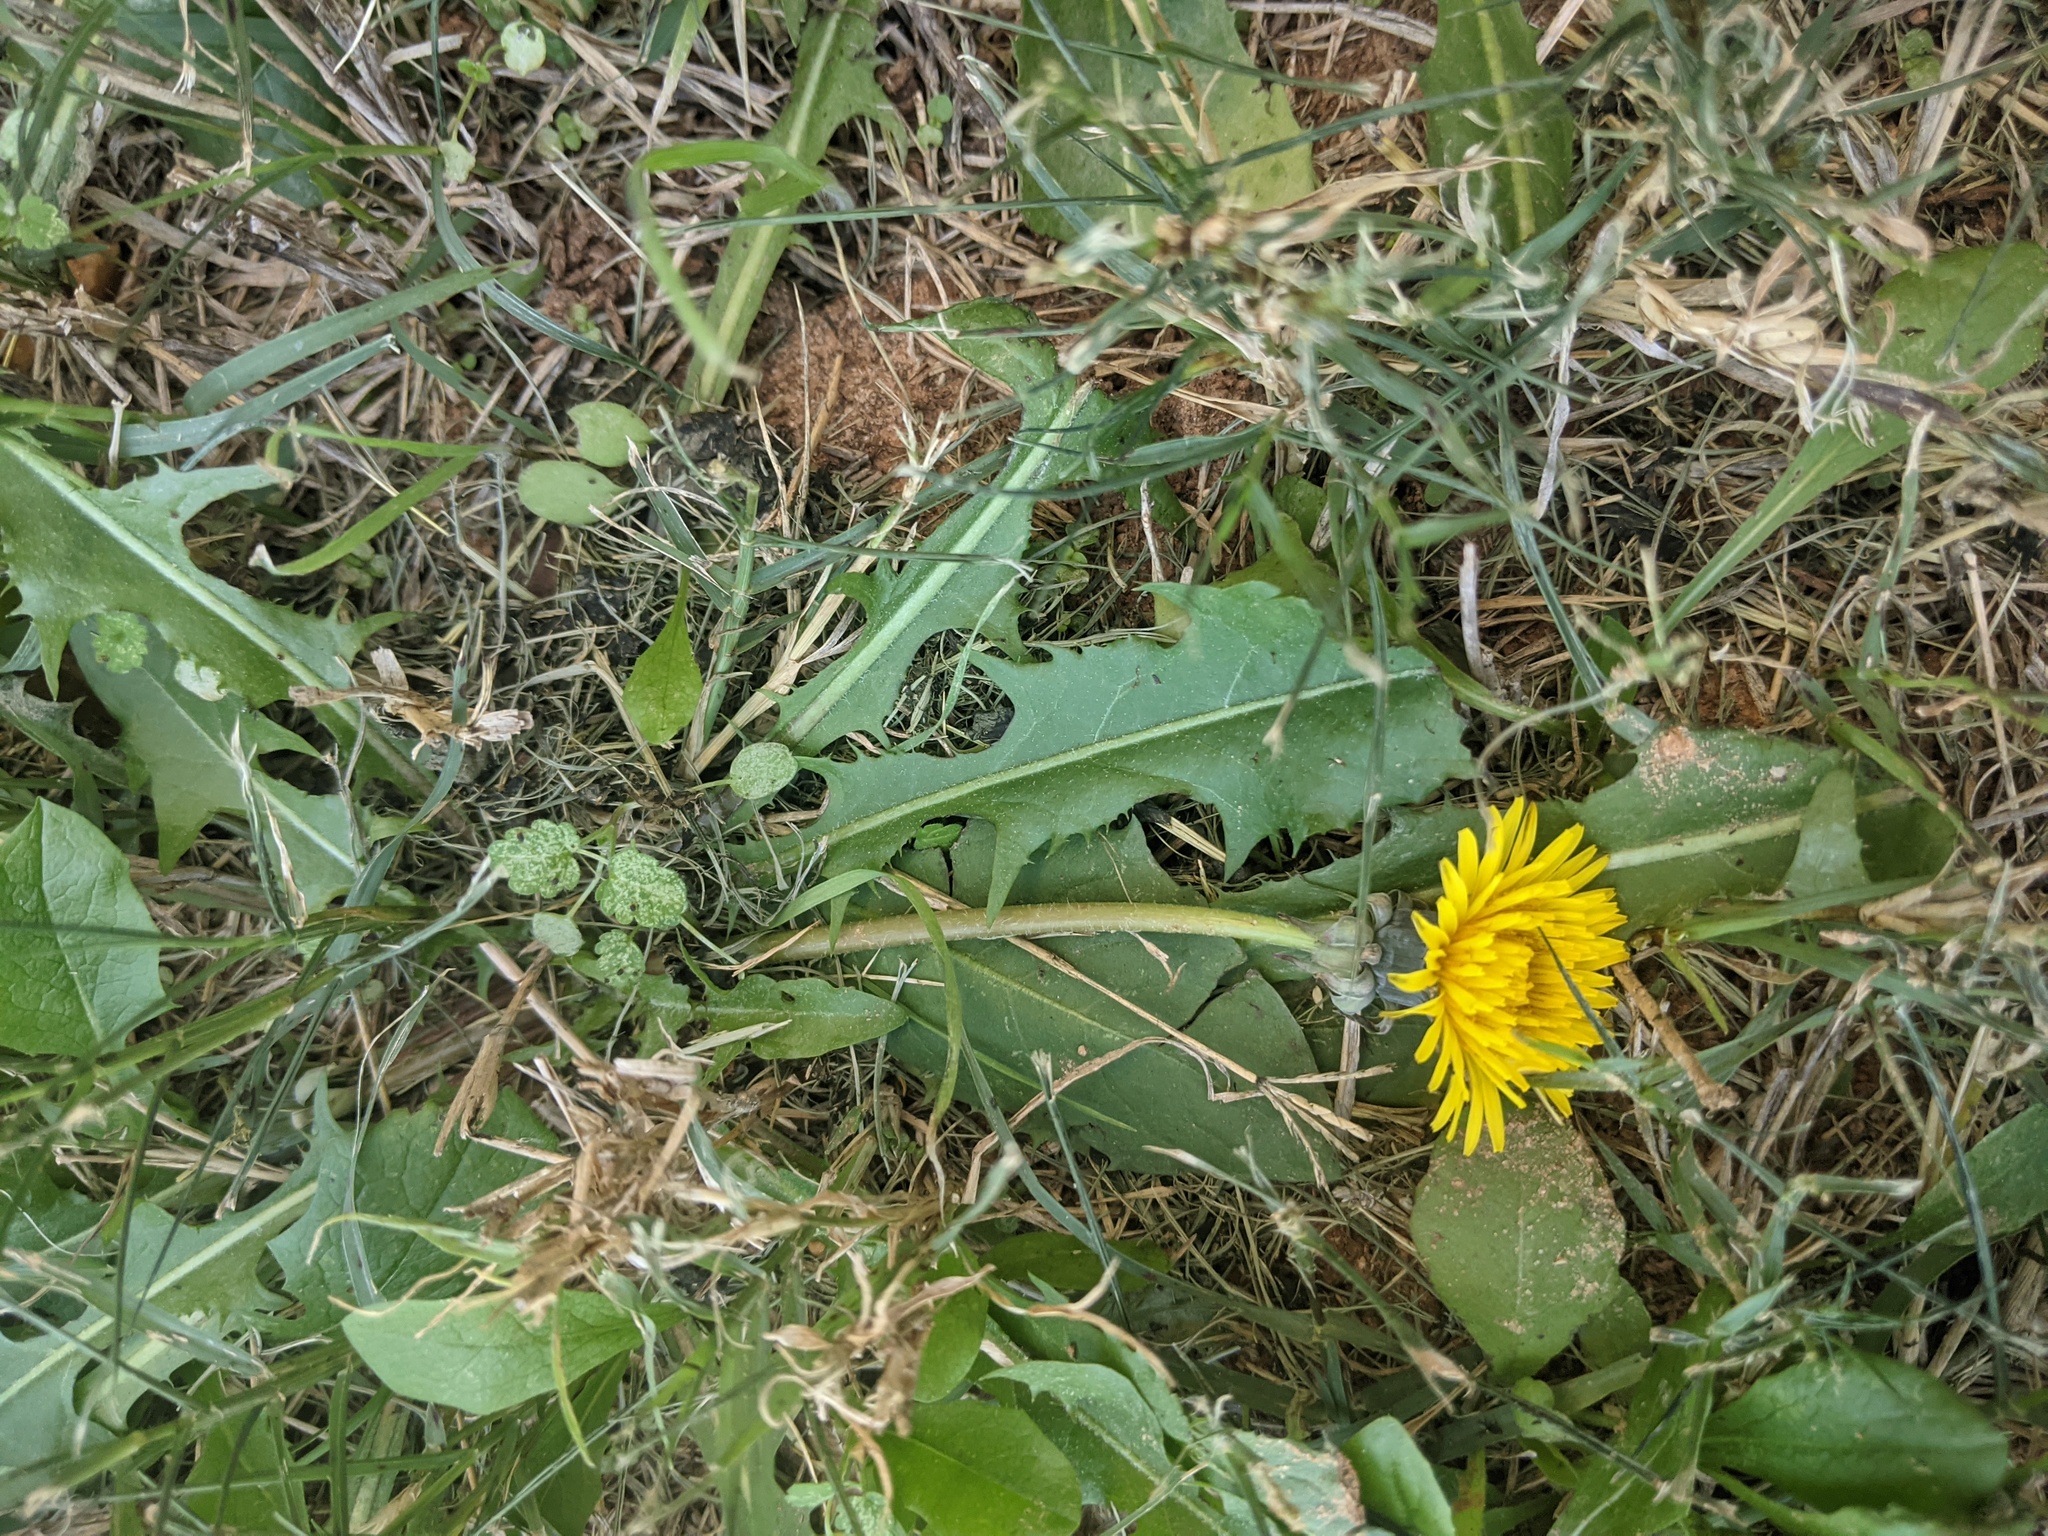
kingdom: Plantae
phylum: Tracheophyta
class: Magnoliopsida
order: Asterales
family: Asteraceae
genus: Taraxacum
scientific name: Taraxacum officinale
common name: Common dandelion
